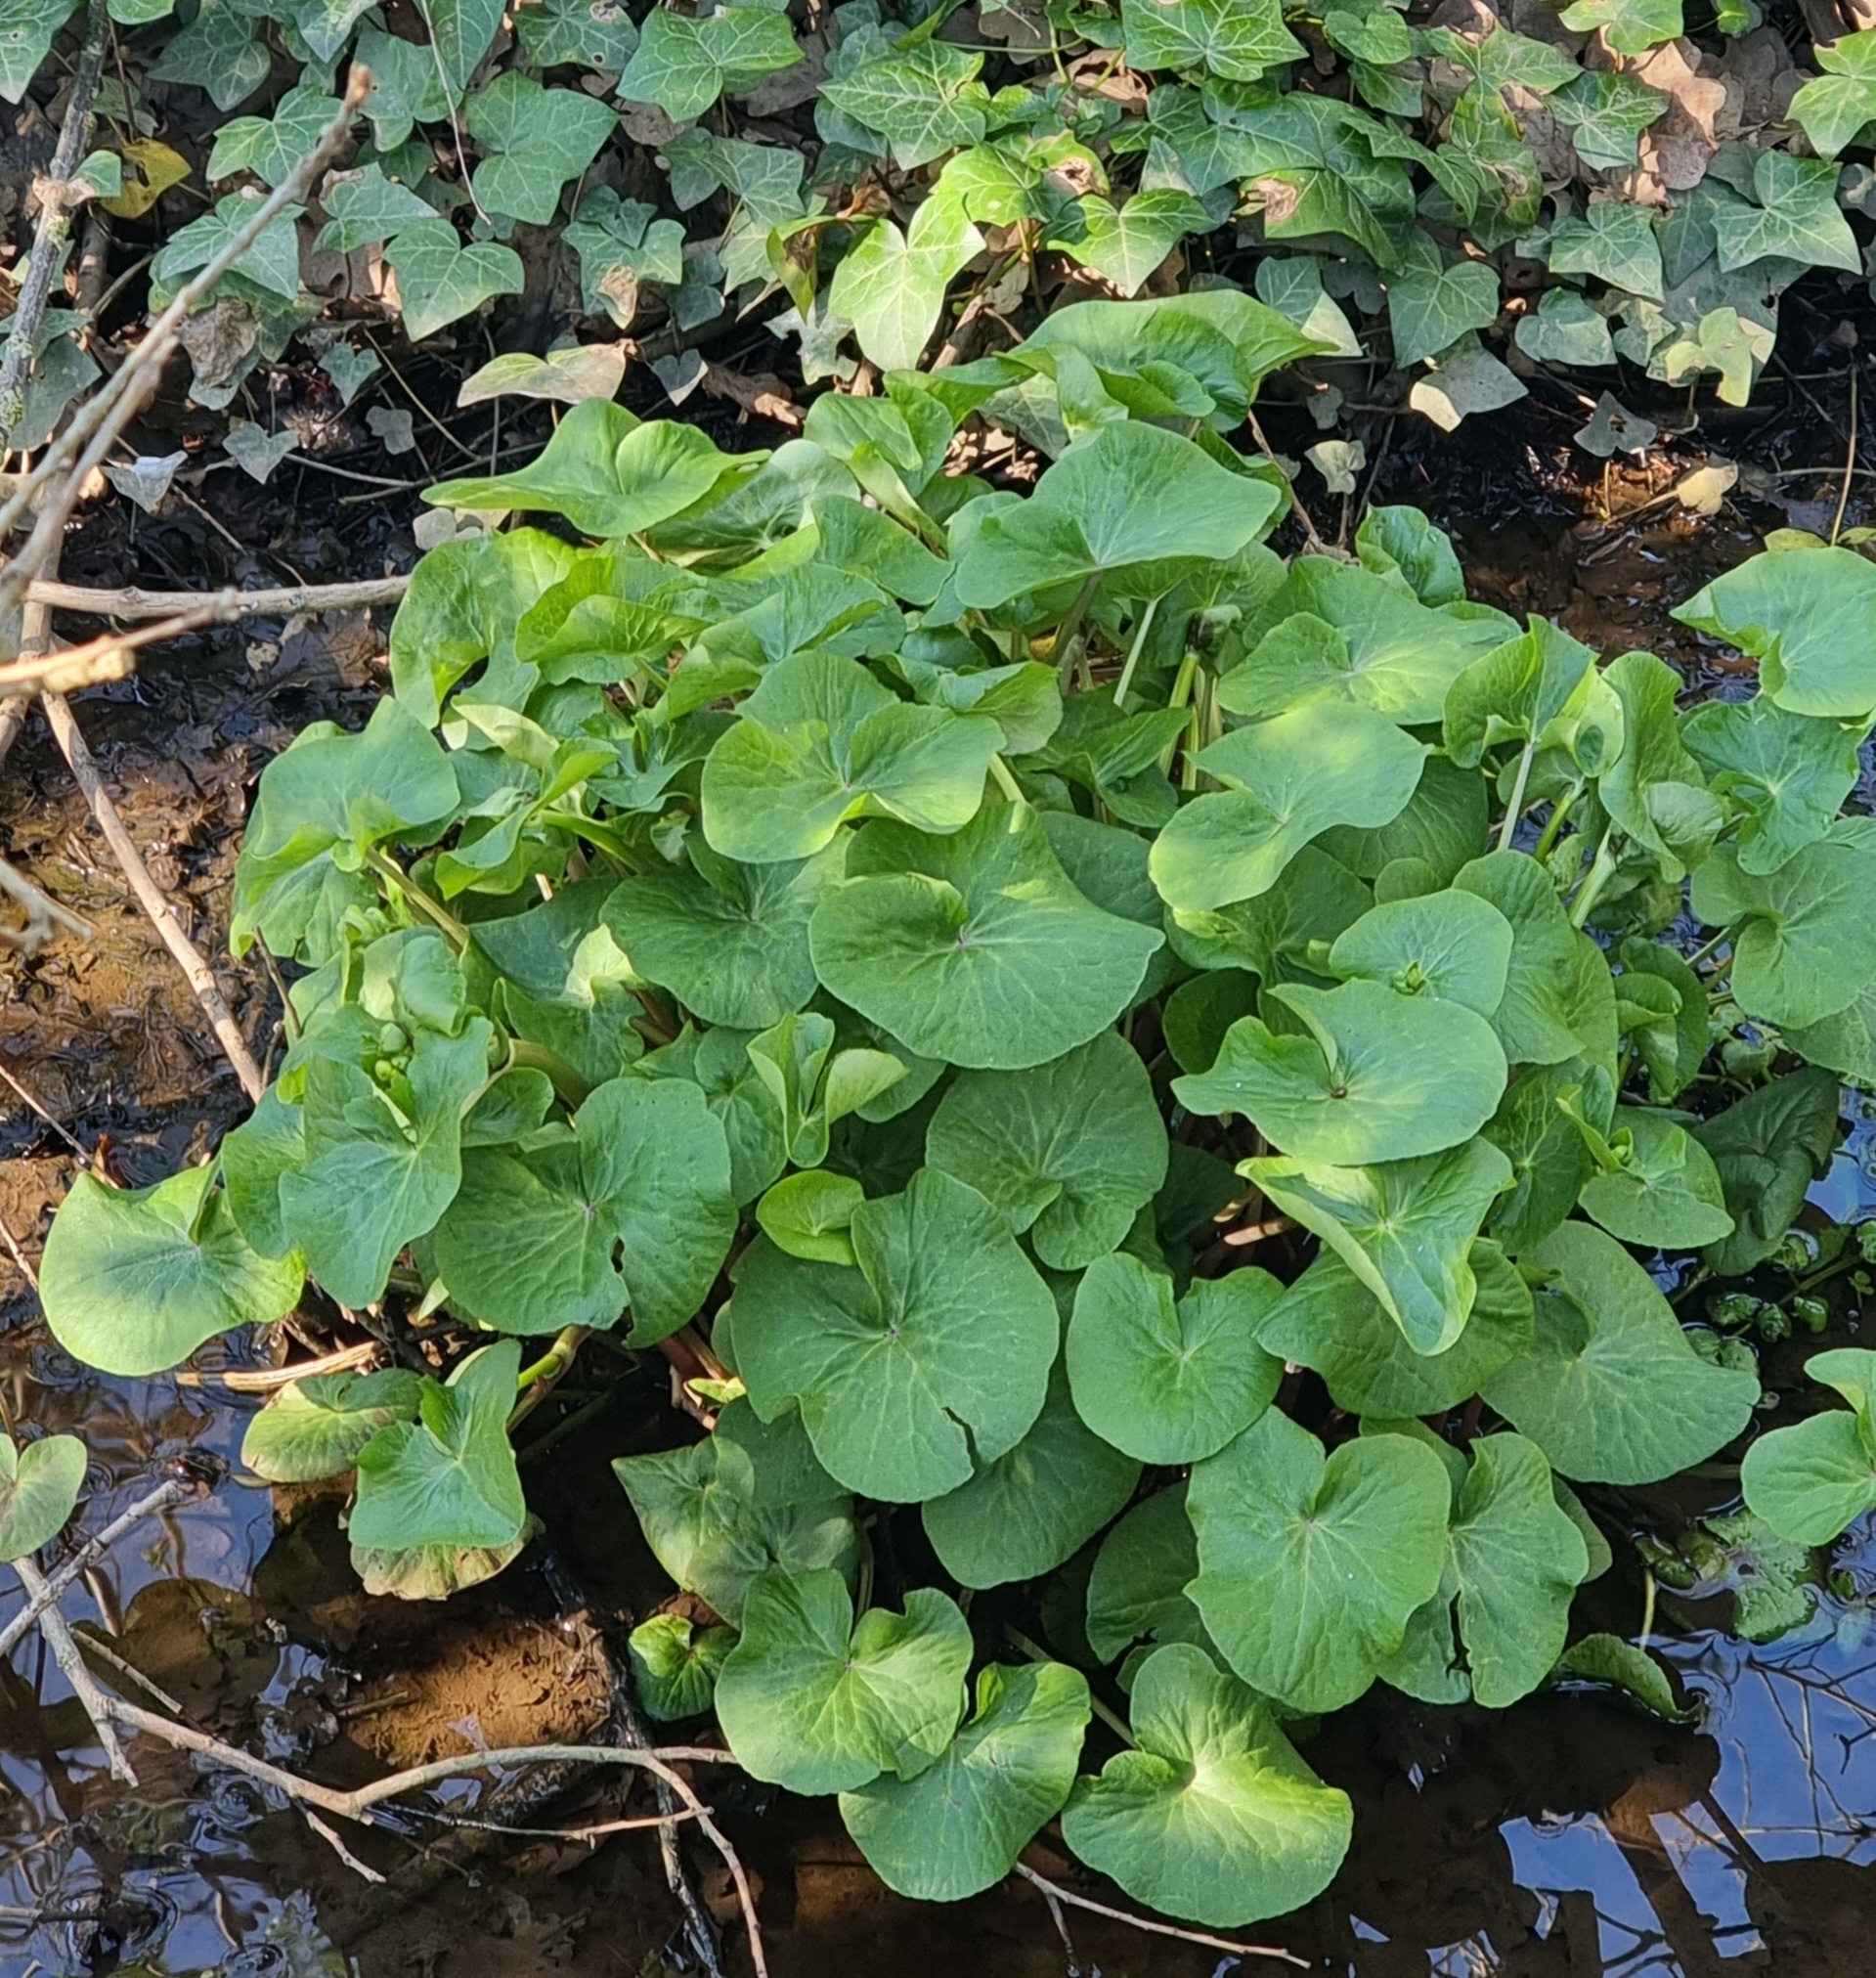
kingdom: Plantae
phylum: Tracheophyta
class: Magnoliopsida
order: Ranunculales
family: Ranunculaceae
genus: Caltha
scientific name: Caltha palustris
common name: Marsh marigold
